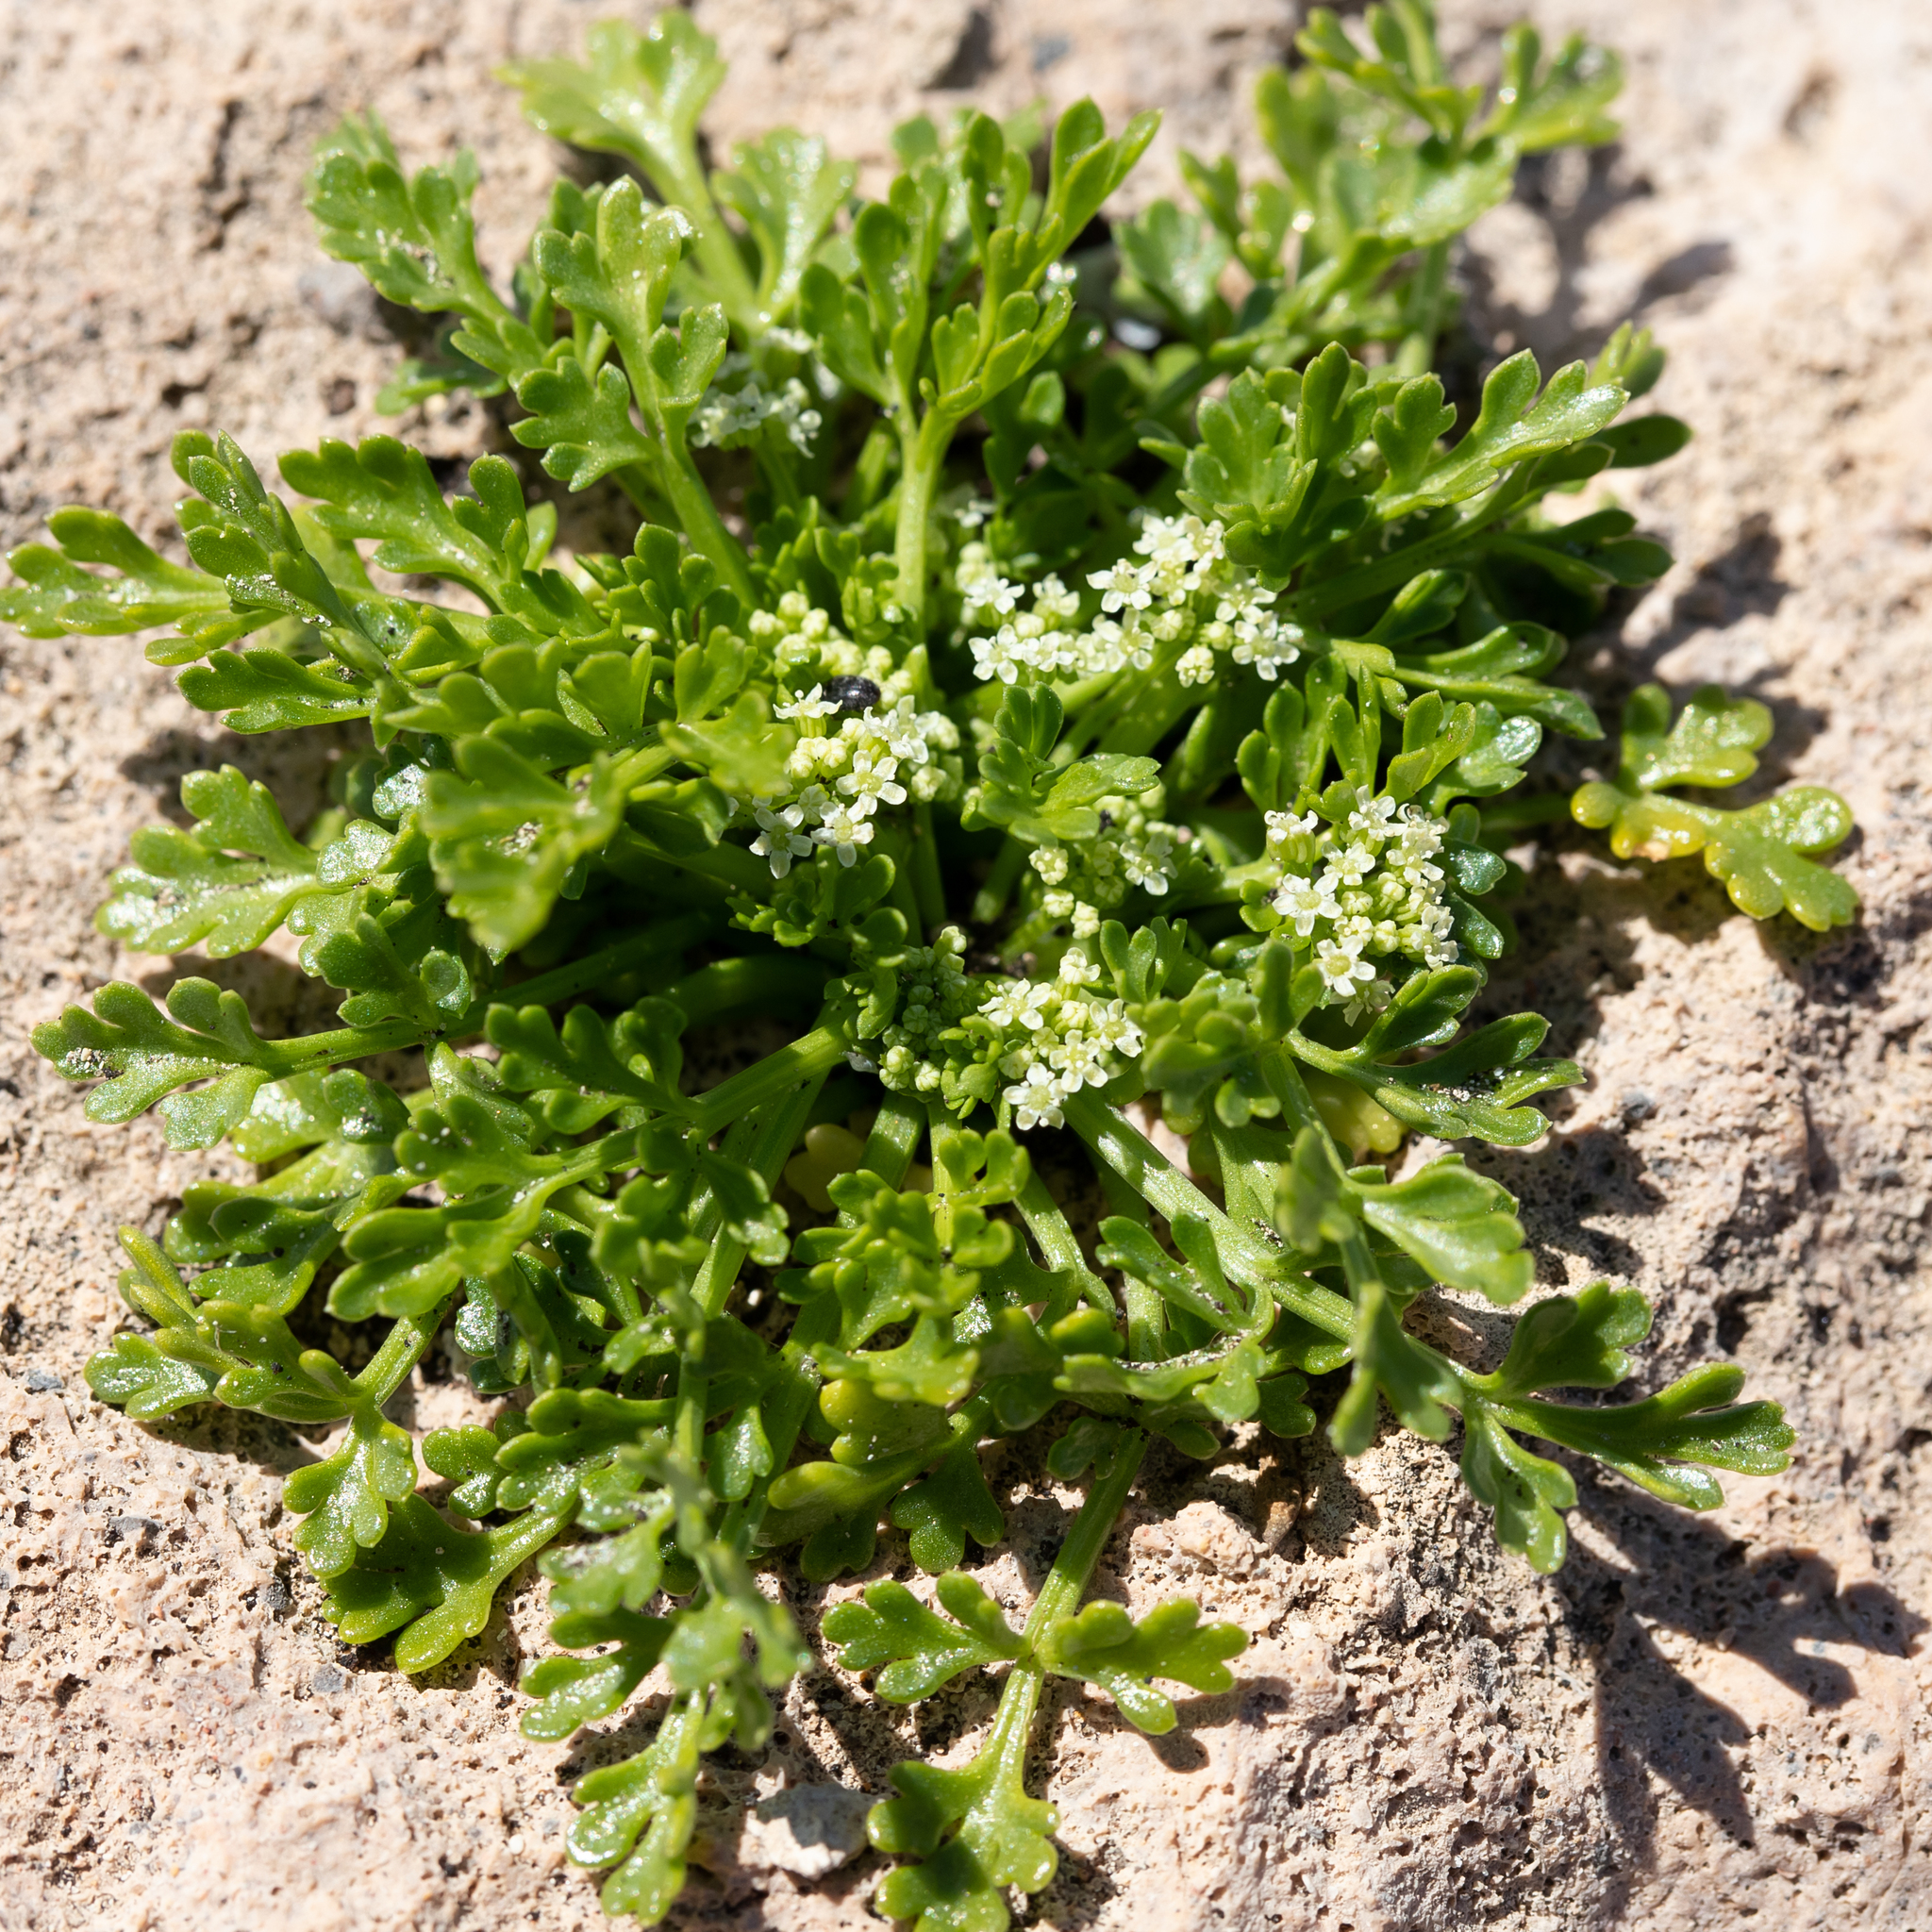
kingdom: Plantae
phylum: Tracheophyta
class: Magnoliopsida
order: Apiales
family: Apiaceae
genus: Apium
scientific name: Apium prostratum
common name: Prostrate marshwort
